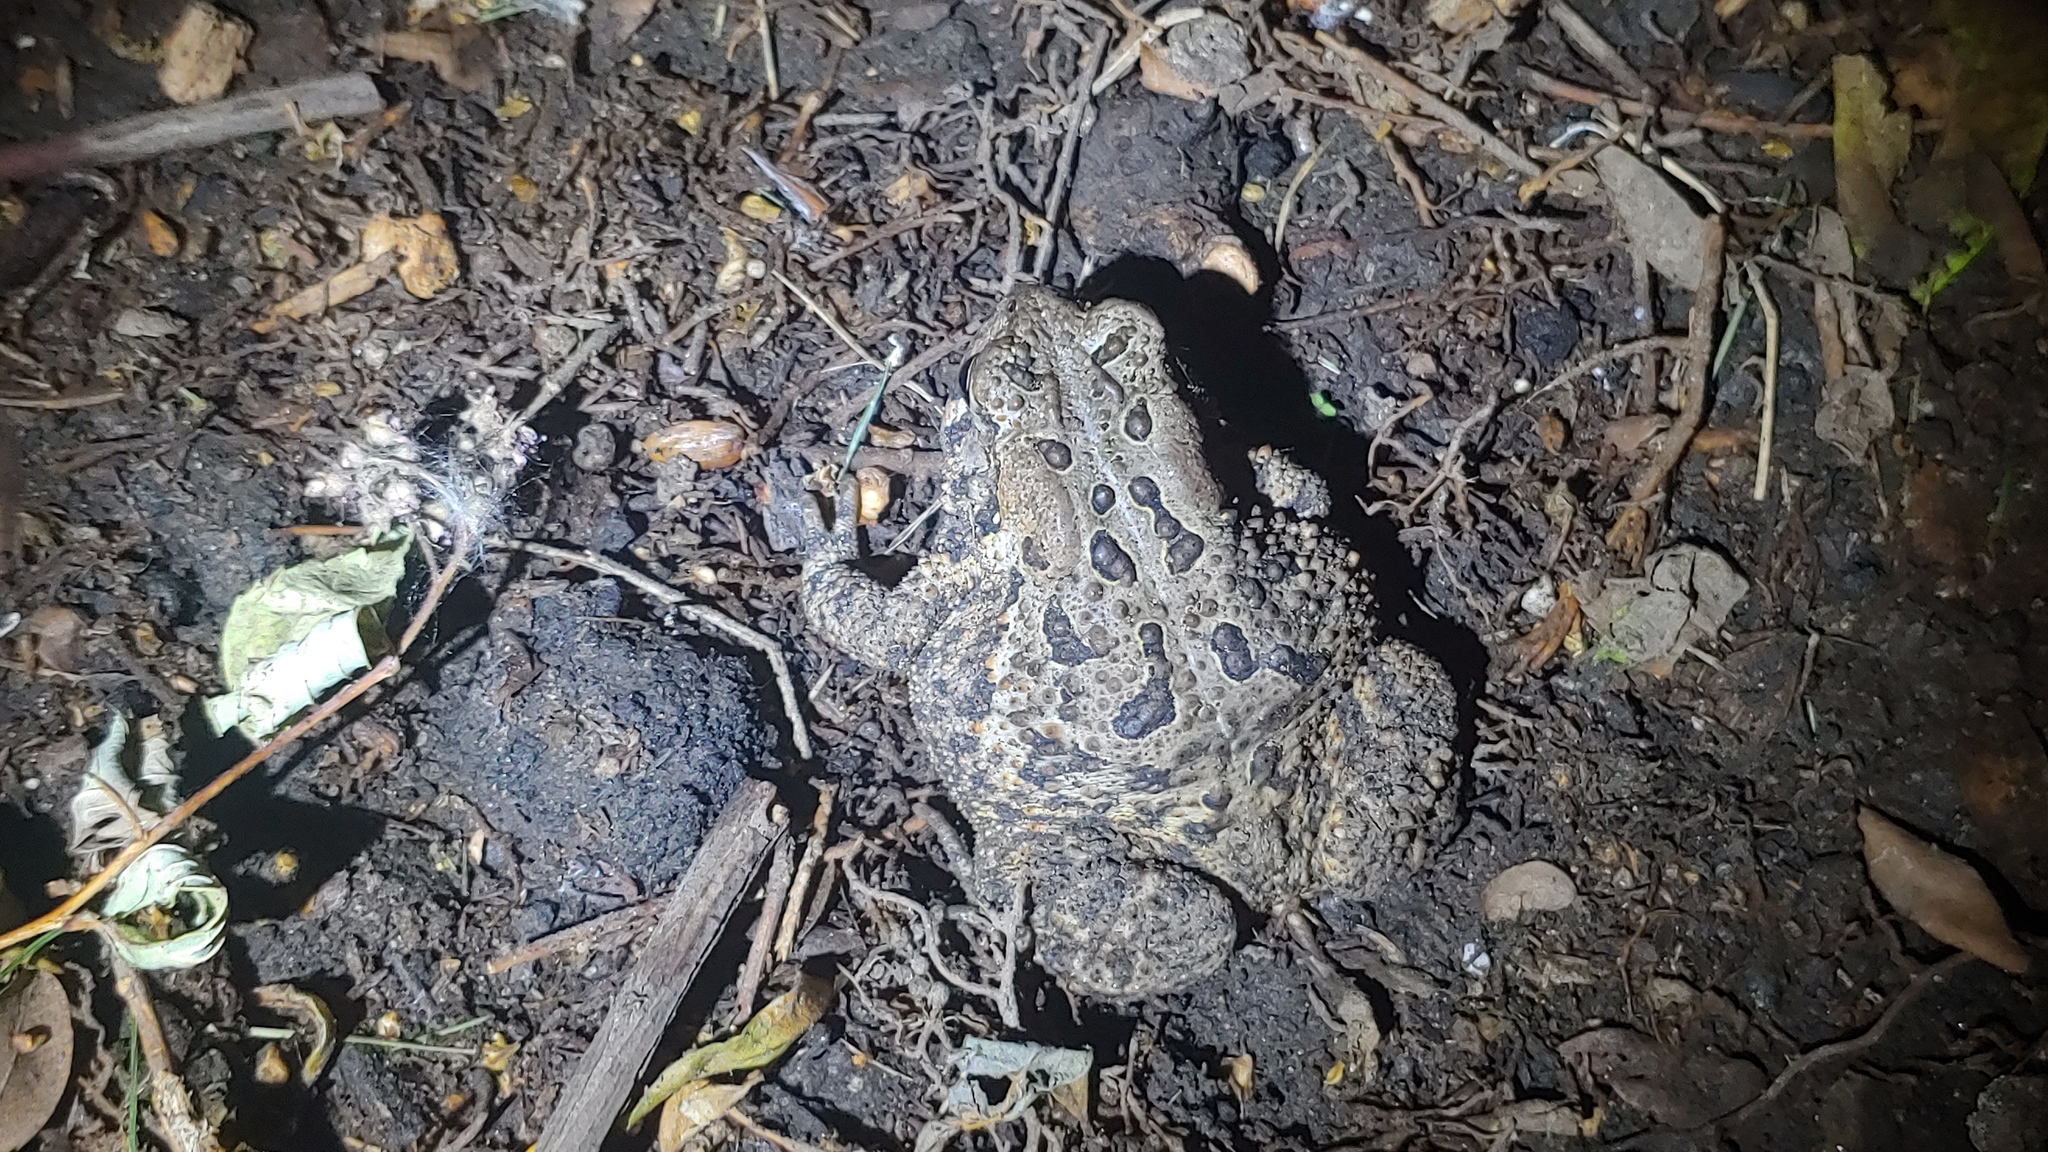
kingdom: Animalia
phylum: Chordata
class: Amphibia
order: Anura
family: Bufonidae
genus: Anaxyrus
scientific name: Anaxyrus americanus
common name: American toad
